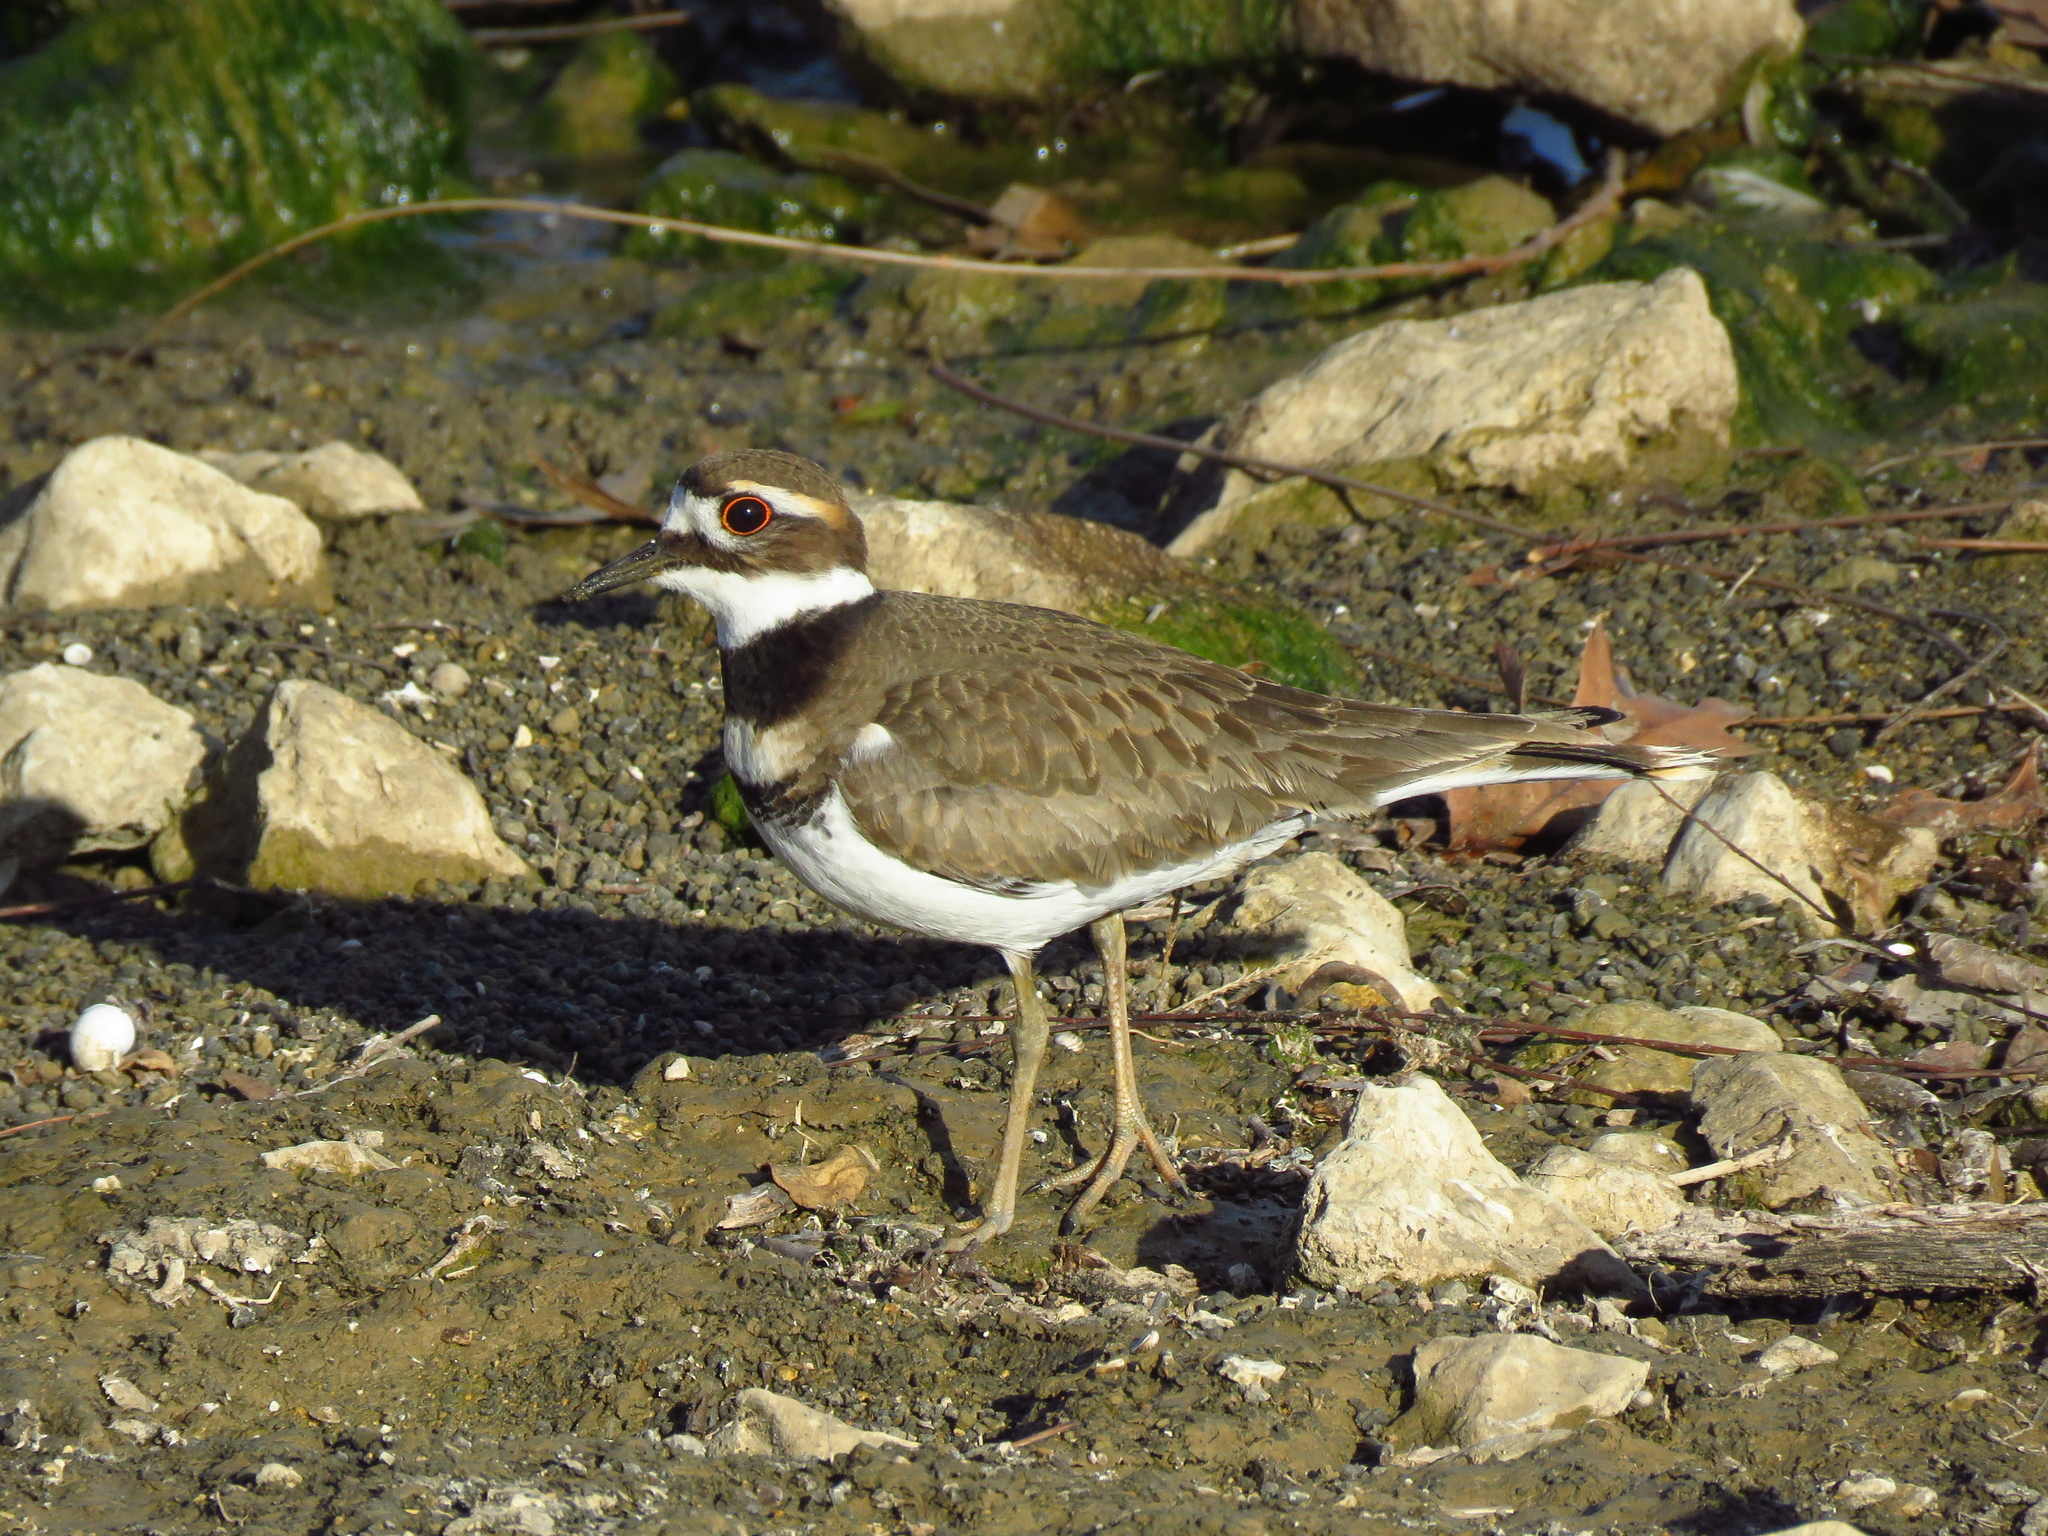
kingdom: Animalia
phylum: Chordata
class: Aves
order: Charadriiformes
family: Charadriidae
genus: Charadrius
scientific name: Charadrius vociferus
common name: Killdeer
